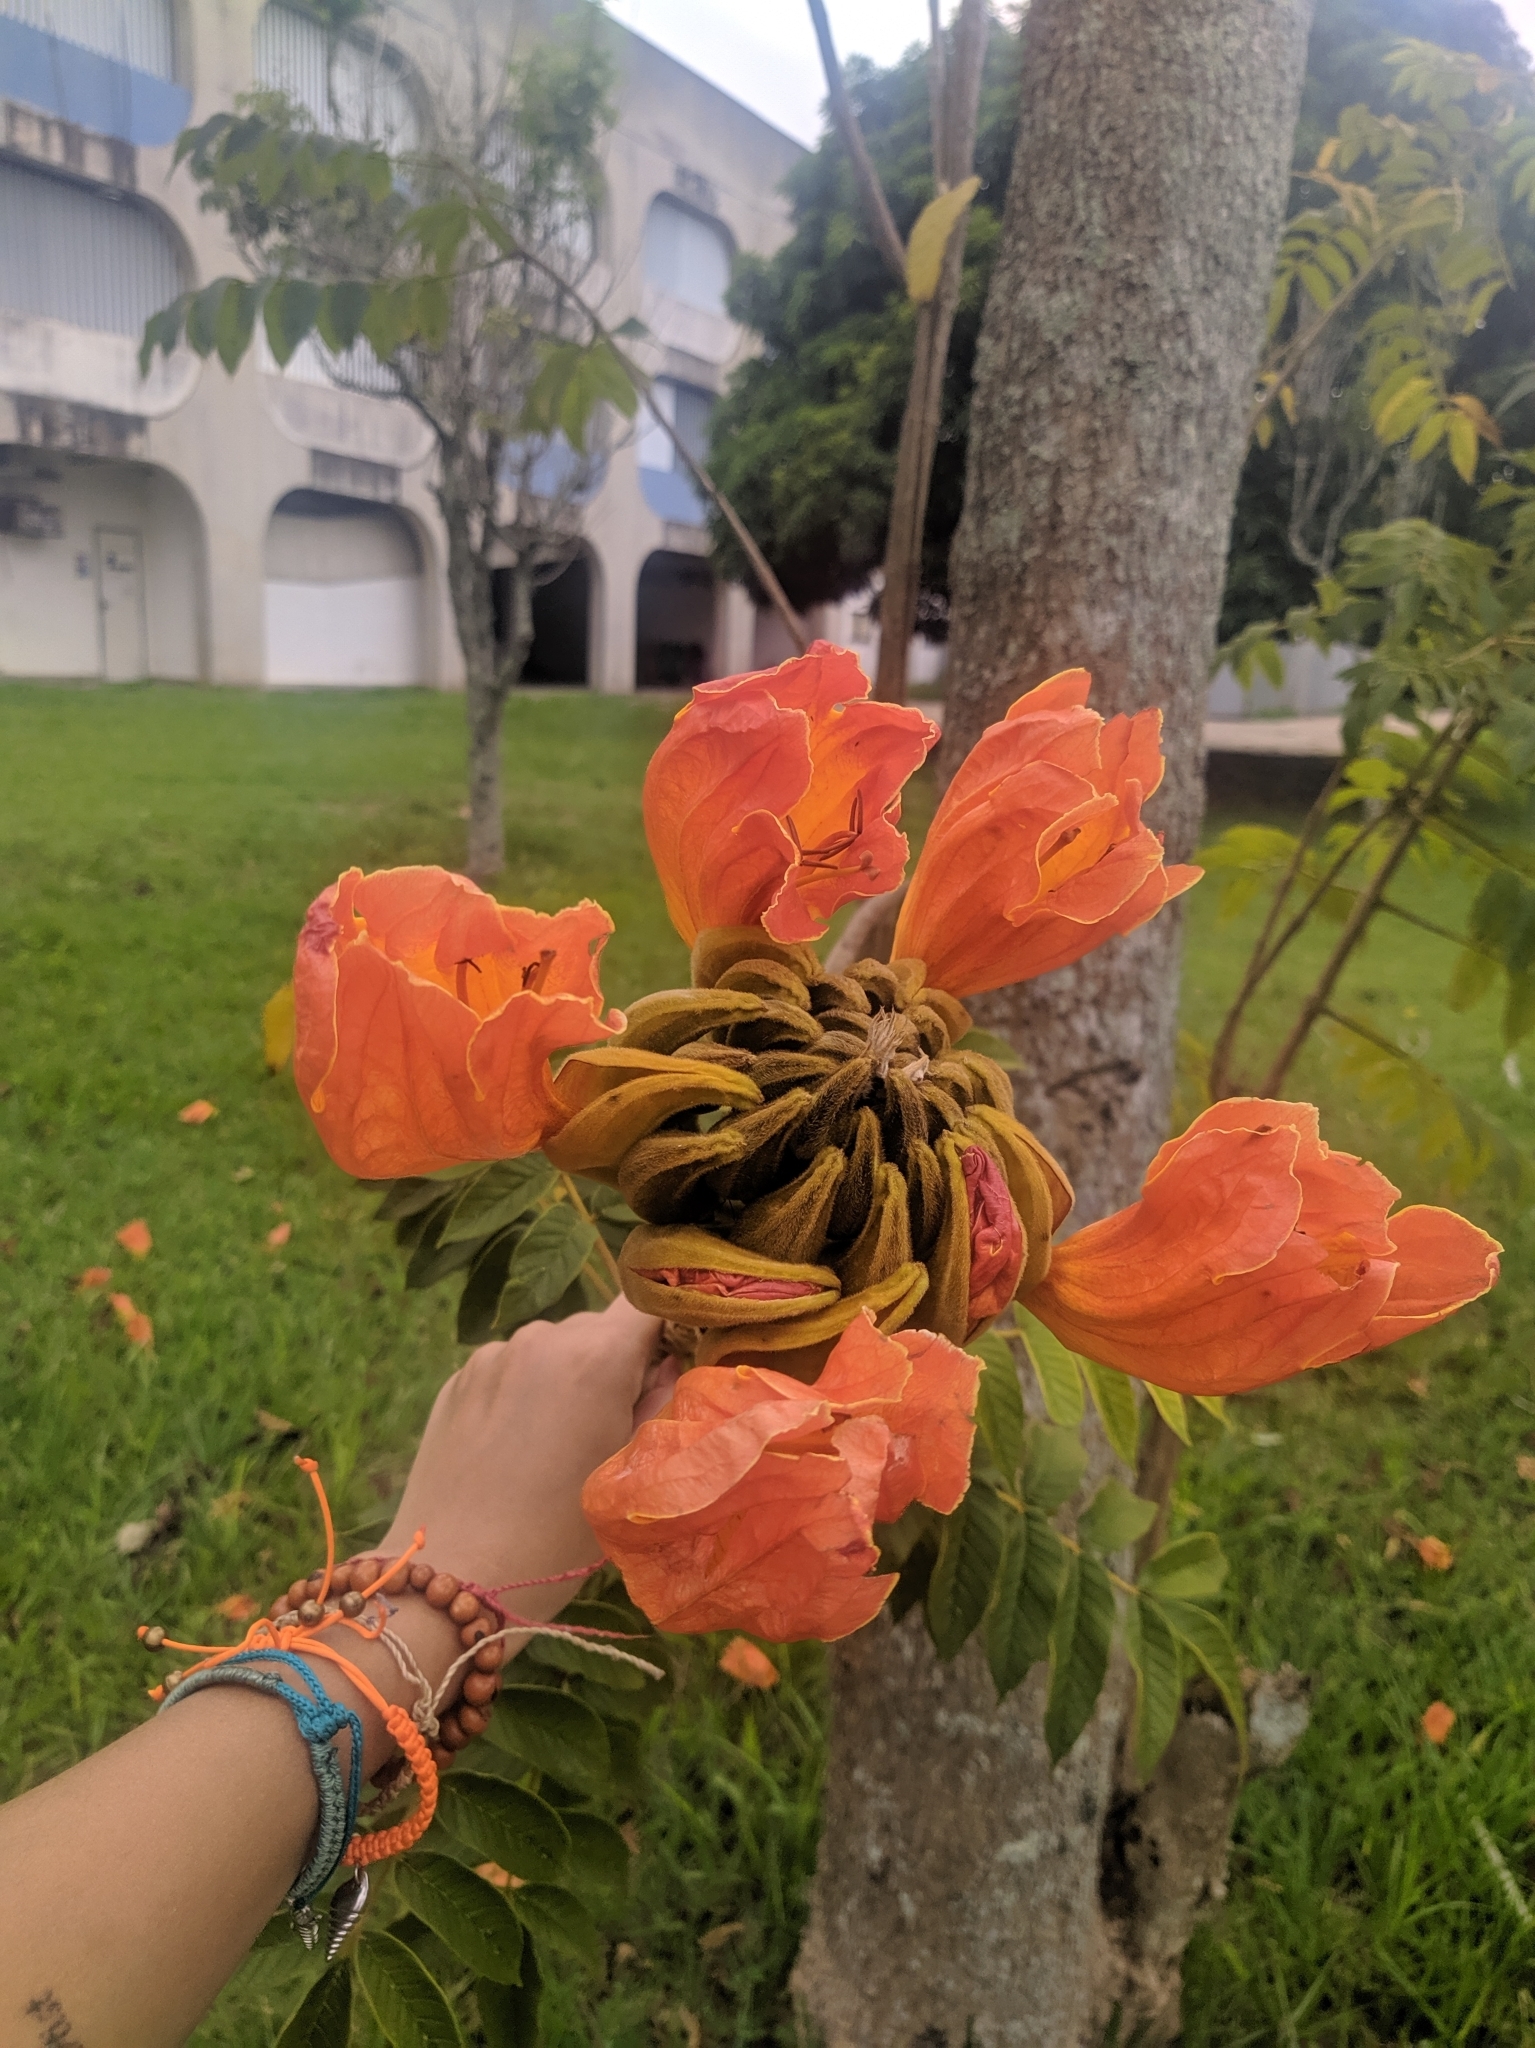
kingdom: Plantae
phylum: Tracheophyta
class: Magnoliopsida
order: Lamiales
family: Bignoniaceae
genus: Spathodea
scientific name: Spathodea campanulata
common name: African tuliptree
